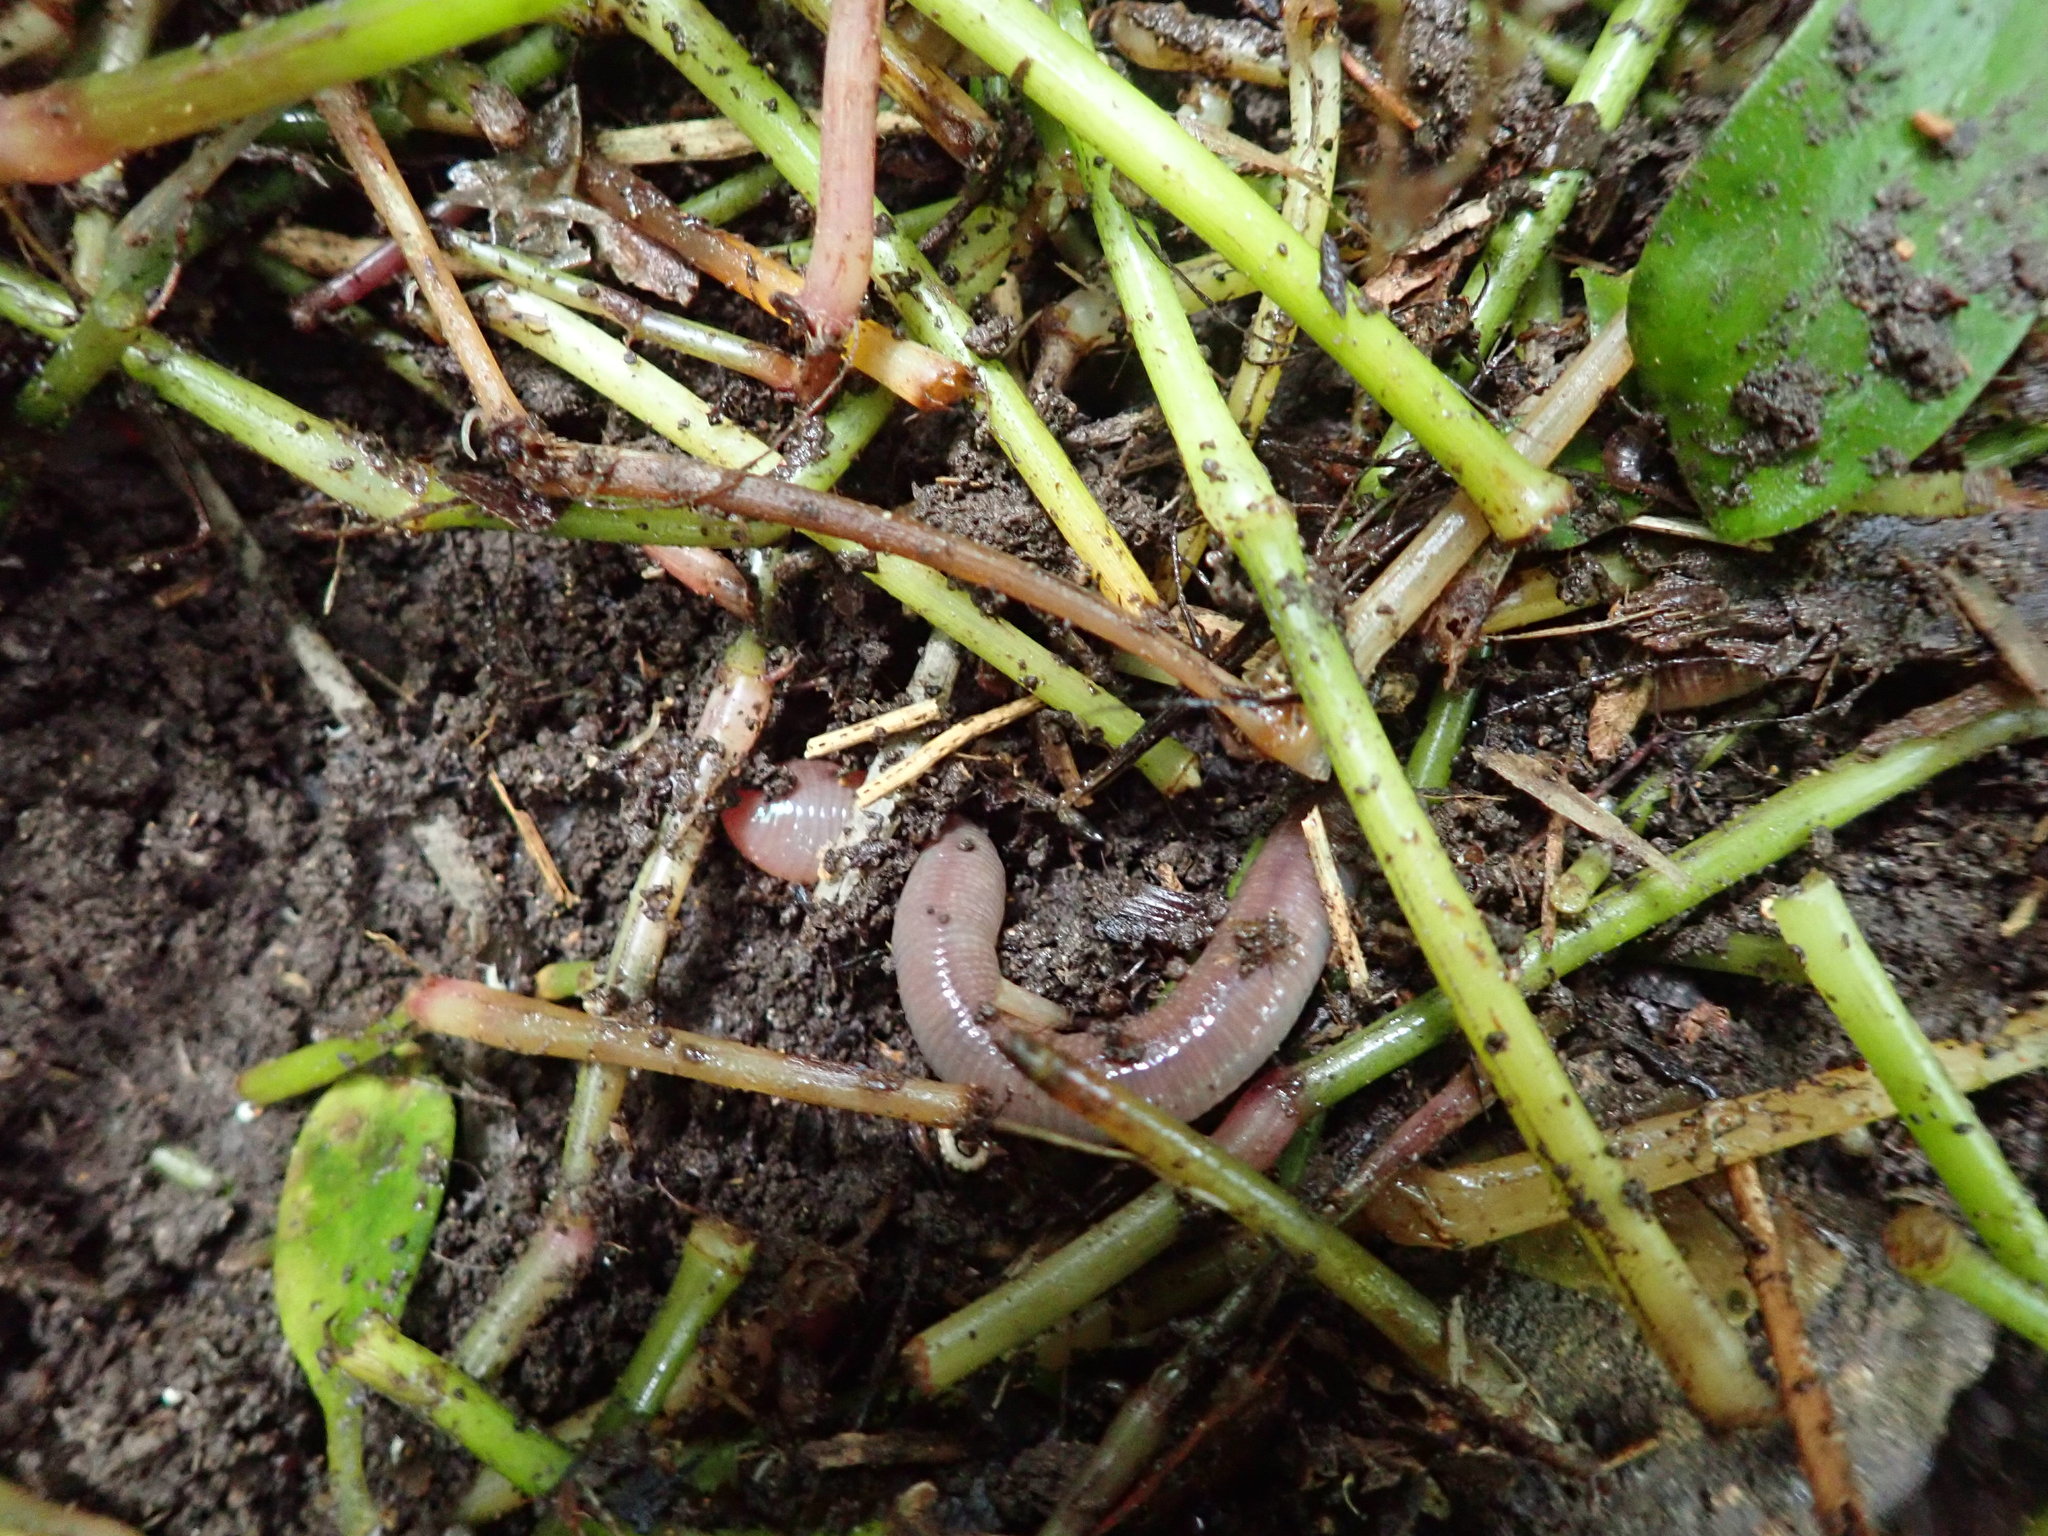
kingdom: Plantae
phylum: Tracheophyta
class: Liliopsida
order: Commelinales
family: Commelinaceae
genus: Tradescantia
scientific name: Tradescantia fluminensis
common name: Wandering-jew
